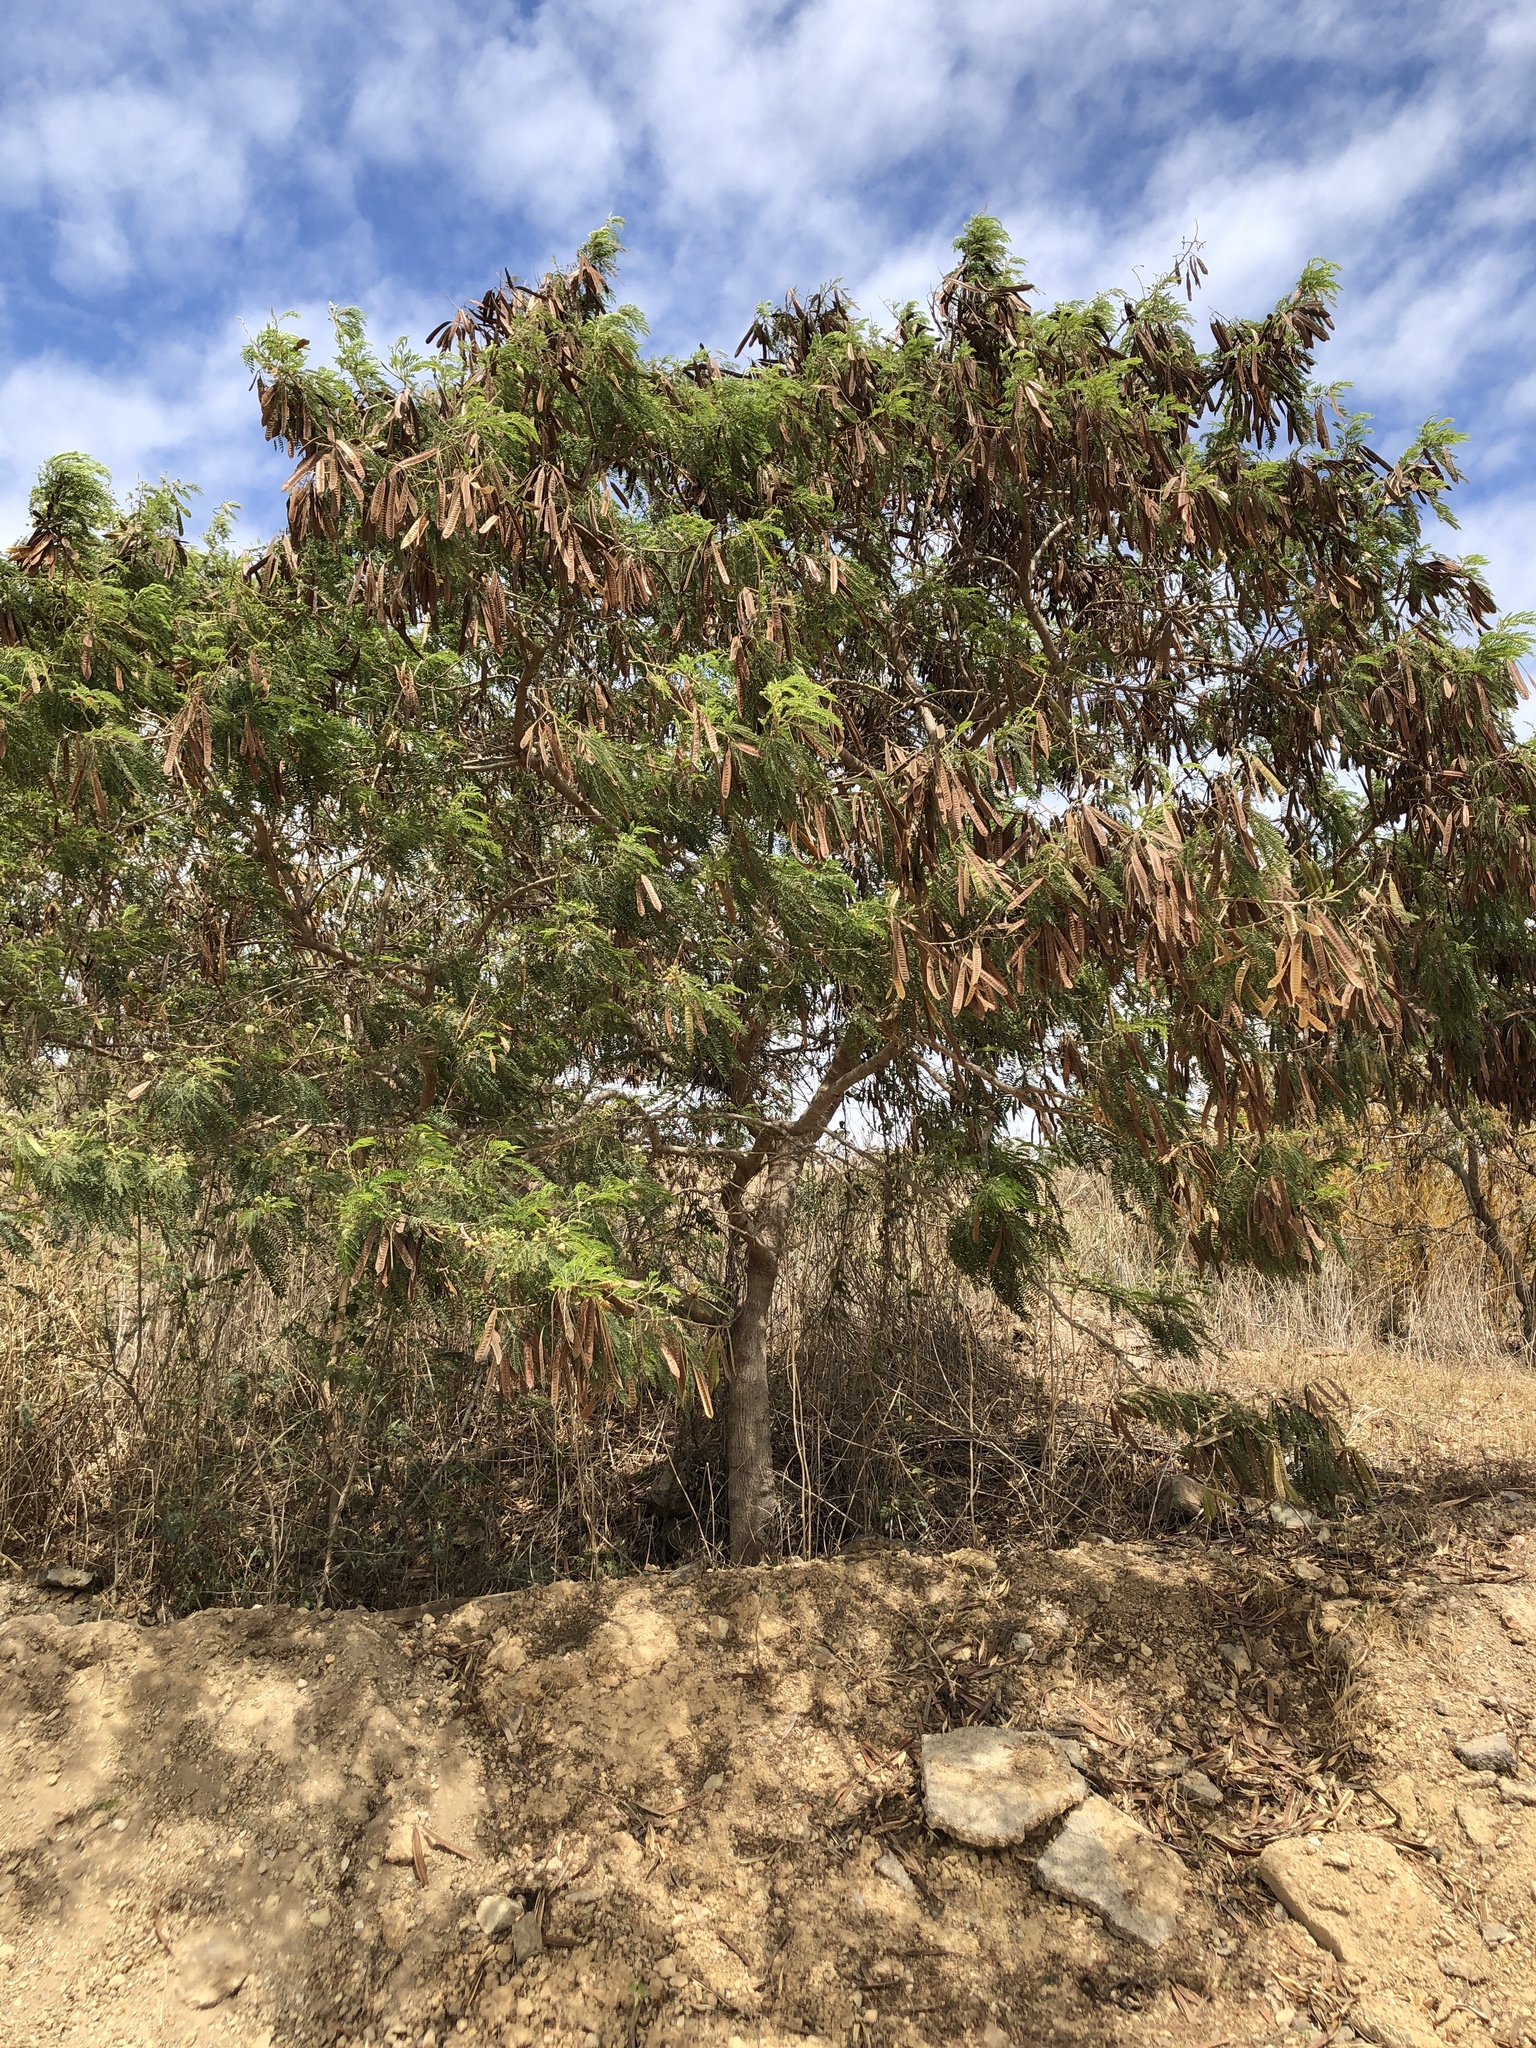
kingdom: Plantae
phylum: Tracheophyta
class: Magnoliopsida
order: Fabales
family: Fabaceae
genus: Leucaena
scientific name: Leucaena leucocephala
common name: White leadtree
